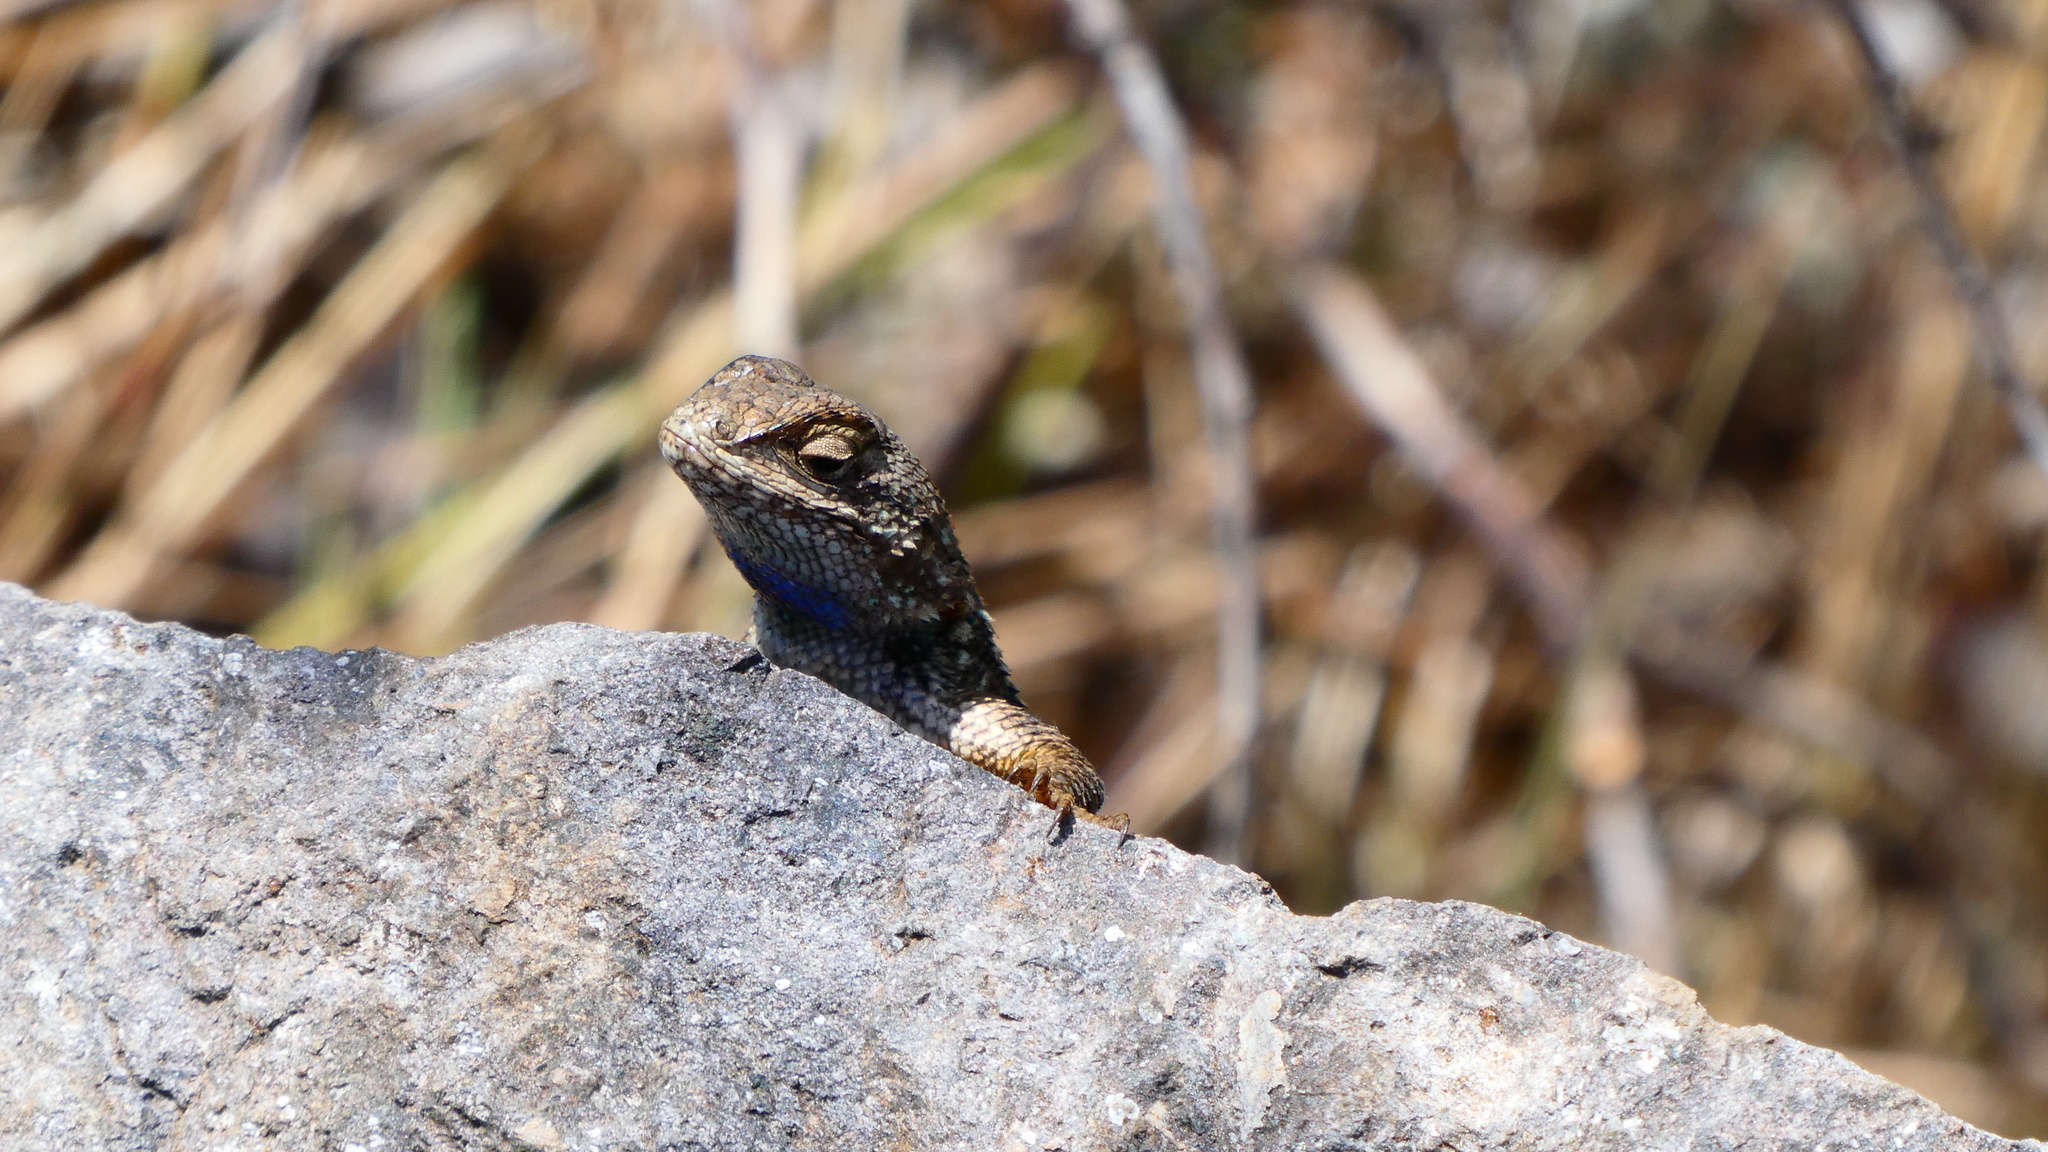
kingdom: Animalia
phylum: Chordata
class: Squamata
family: Phrynosomatidae
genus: Sceloporus
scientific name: Sceloporus occidentalis
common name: Western fence lizard
